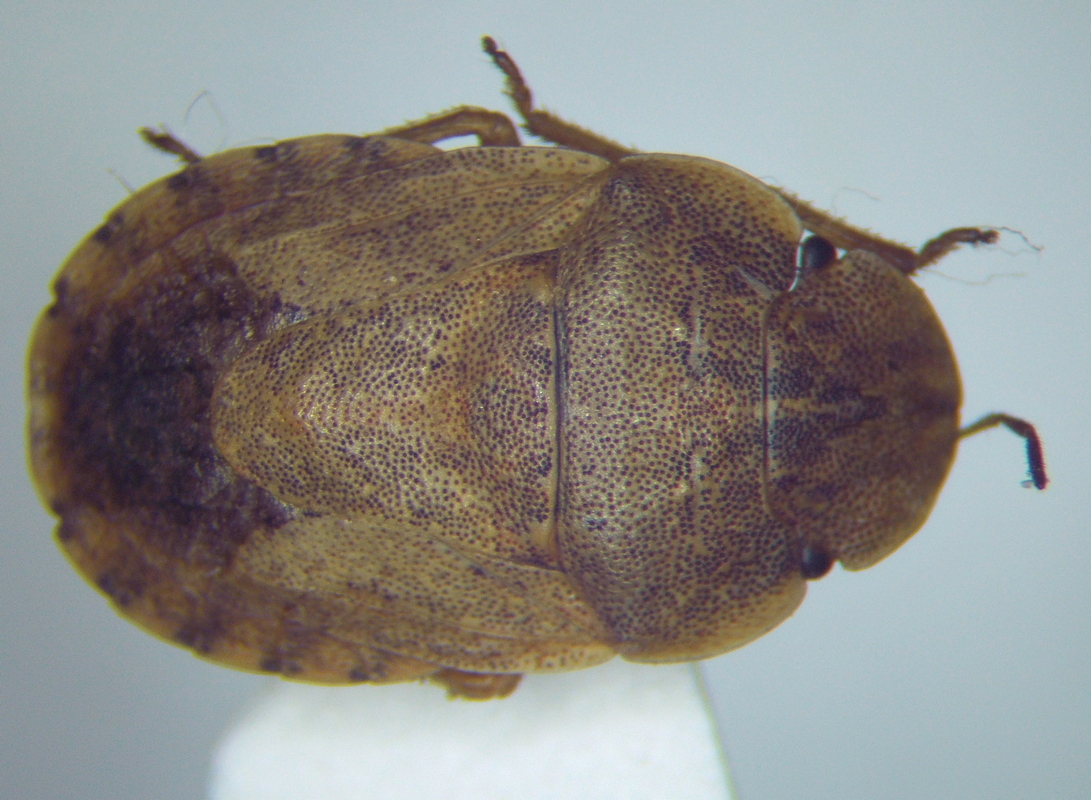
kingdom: Animalia
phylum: Arthropoda
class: Insecta
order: Hemiptera
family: Pentatomidae
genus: Sciocoris
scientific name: Sciocoris deltocephalus
